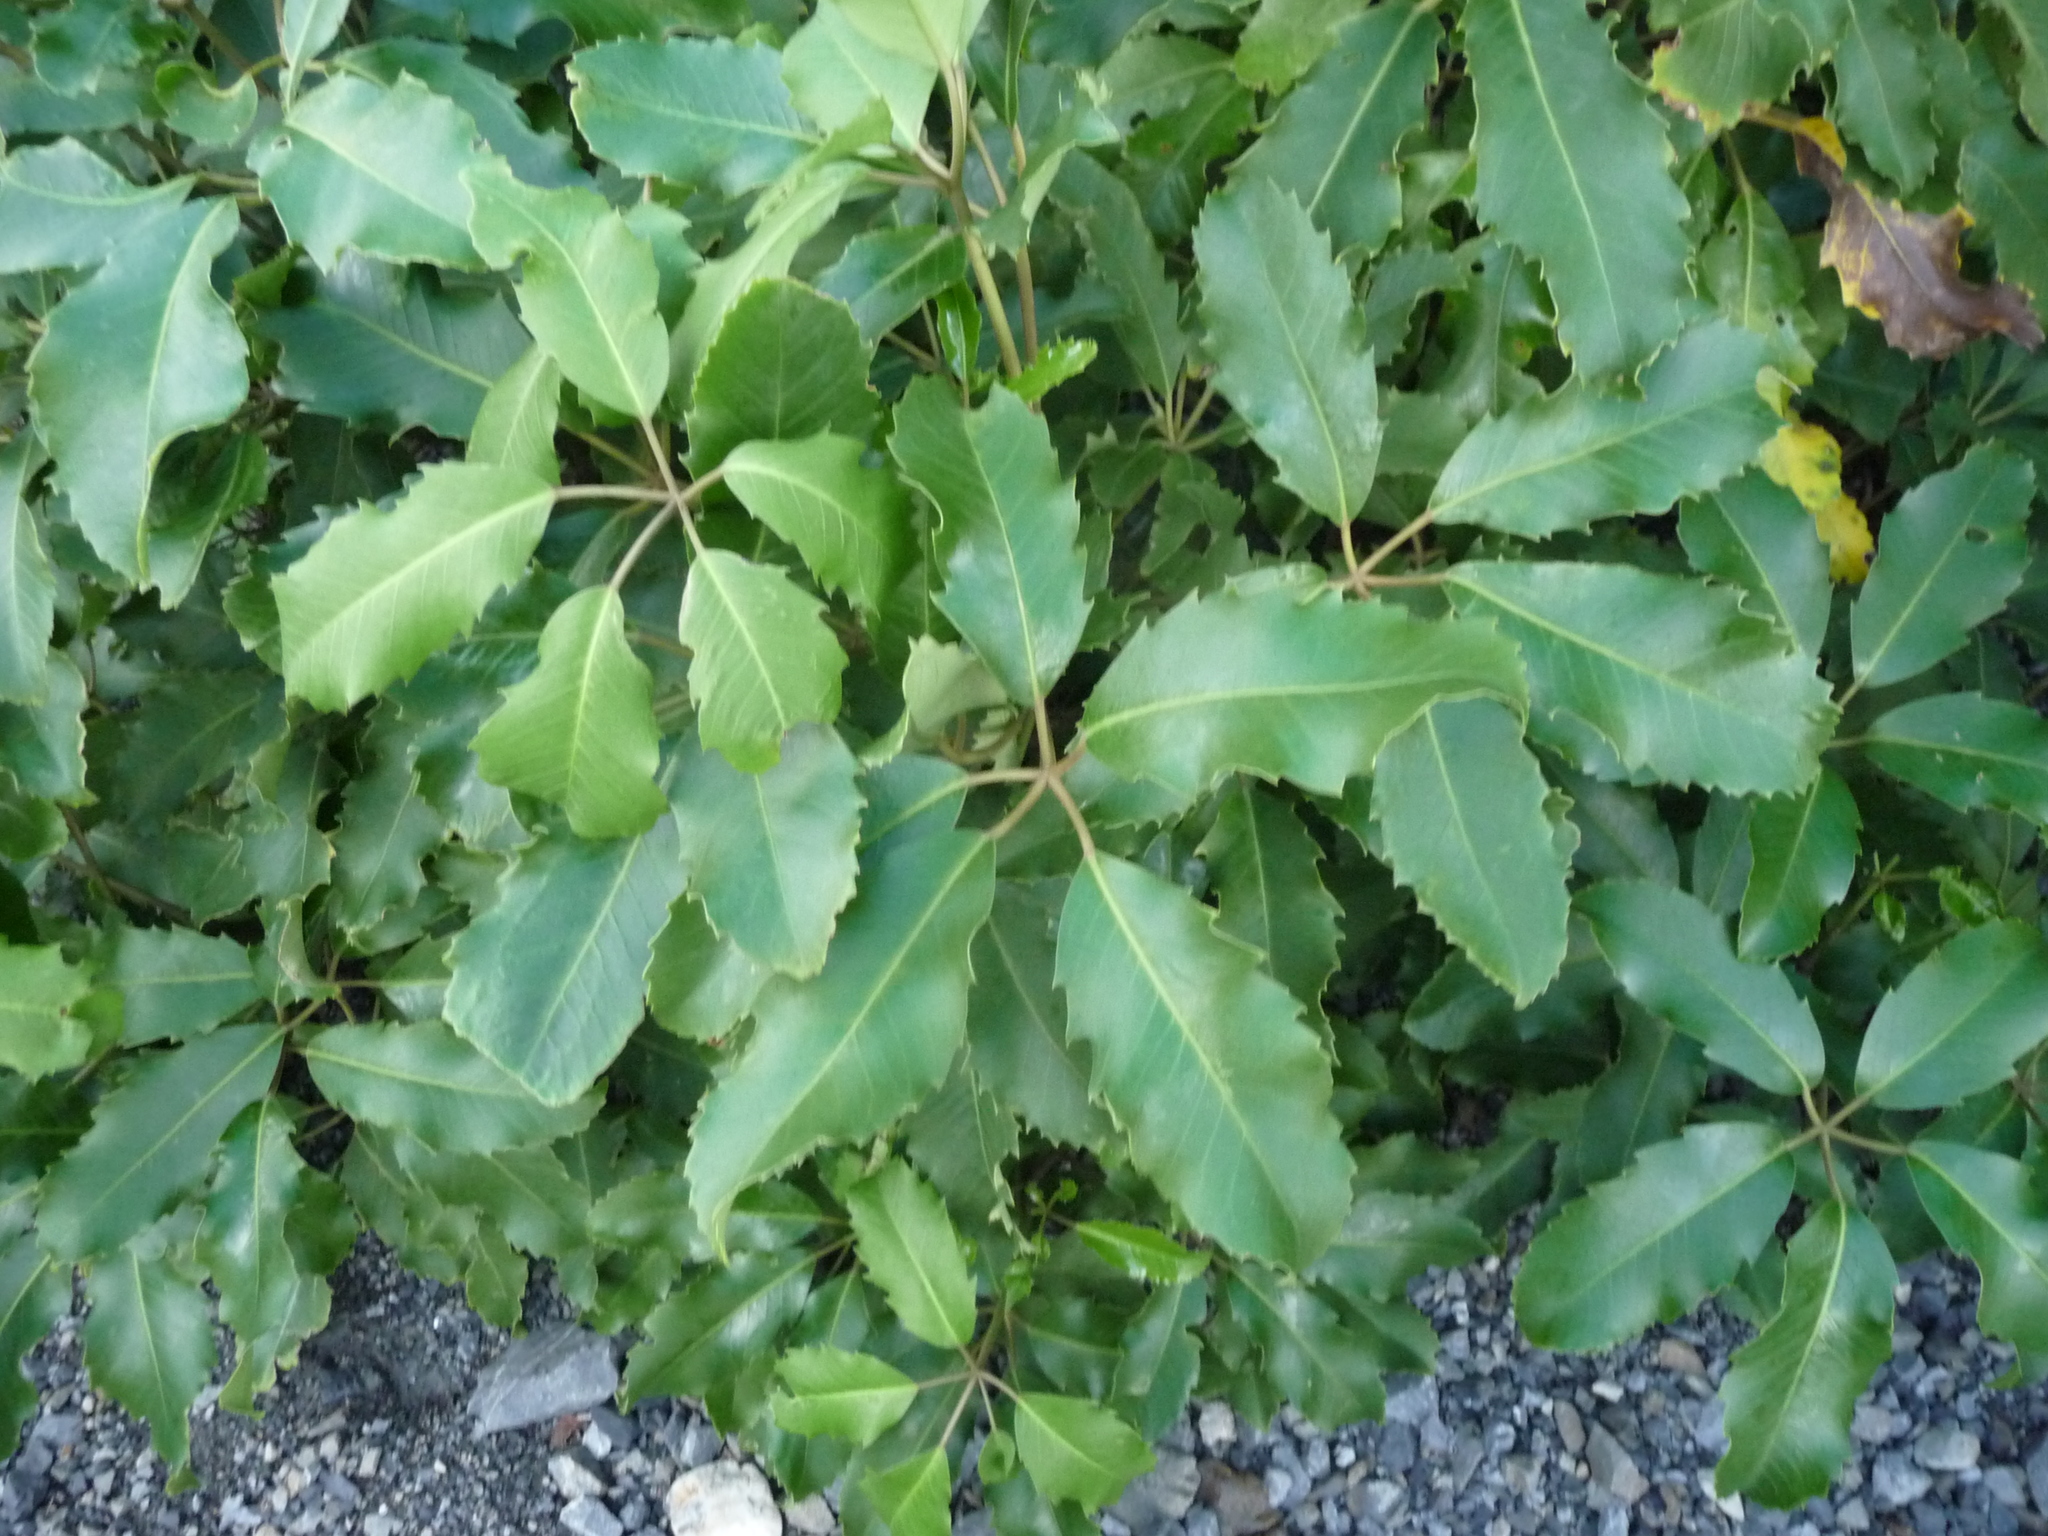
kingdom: Plantae
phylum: Tracheophyta
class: Magnoliopsida
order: Apiales
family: Araliaceae
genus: Neopanax
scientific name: Neopanax arboreus
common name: Five-fingers
